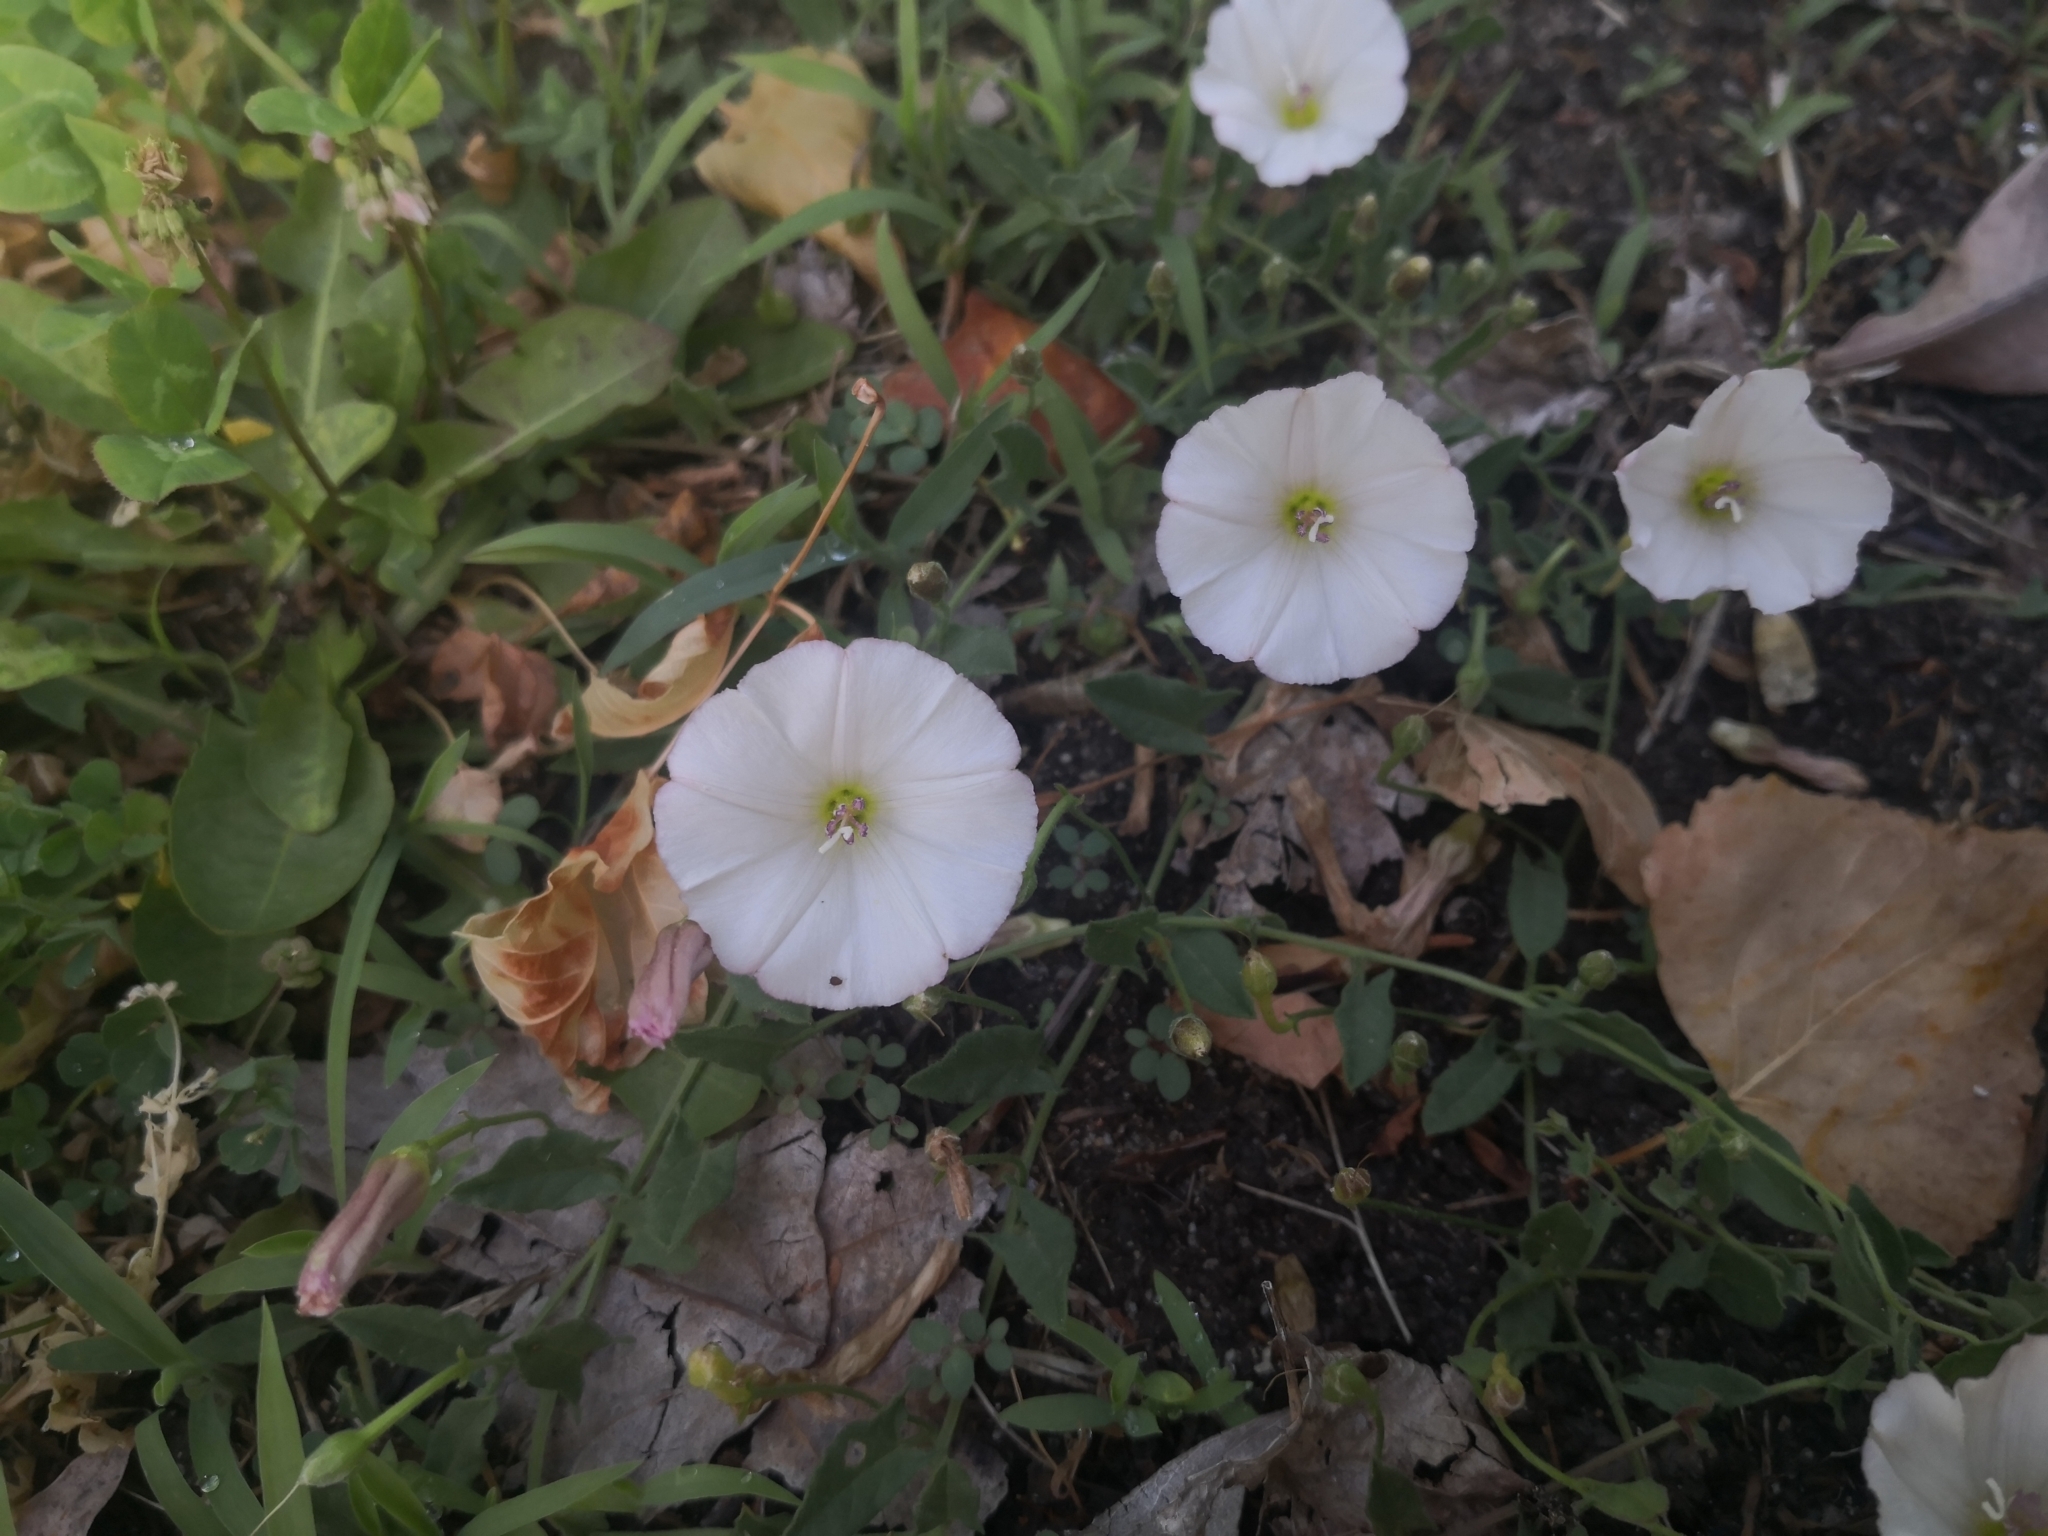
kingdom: Plantae
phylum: Tracheophyta
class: Magnoliopsida
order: Solanales
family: Convolvulaceae
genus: Convolvulus
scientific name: Convolvulus arvensis
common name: Field bindweed
